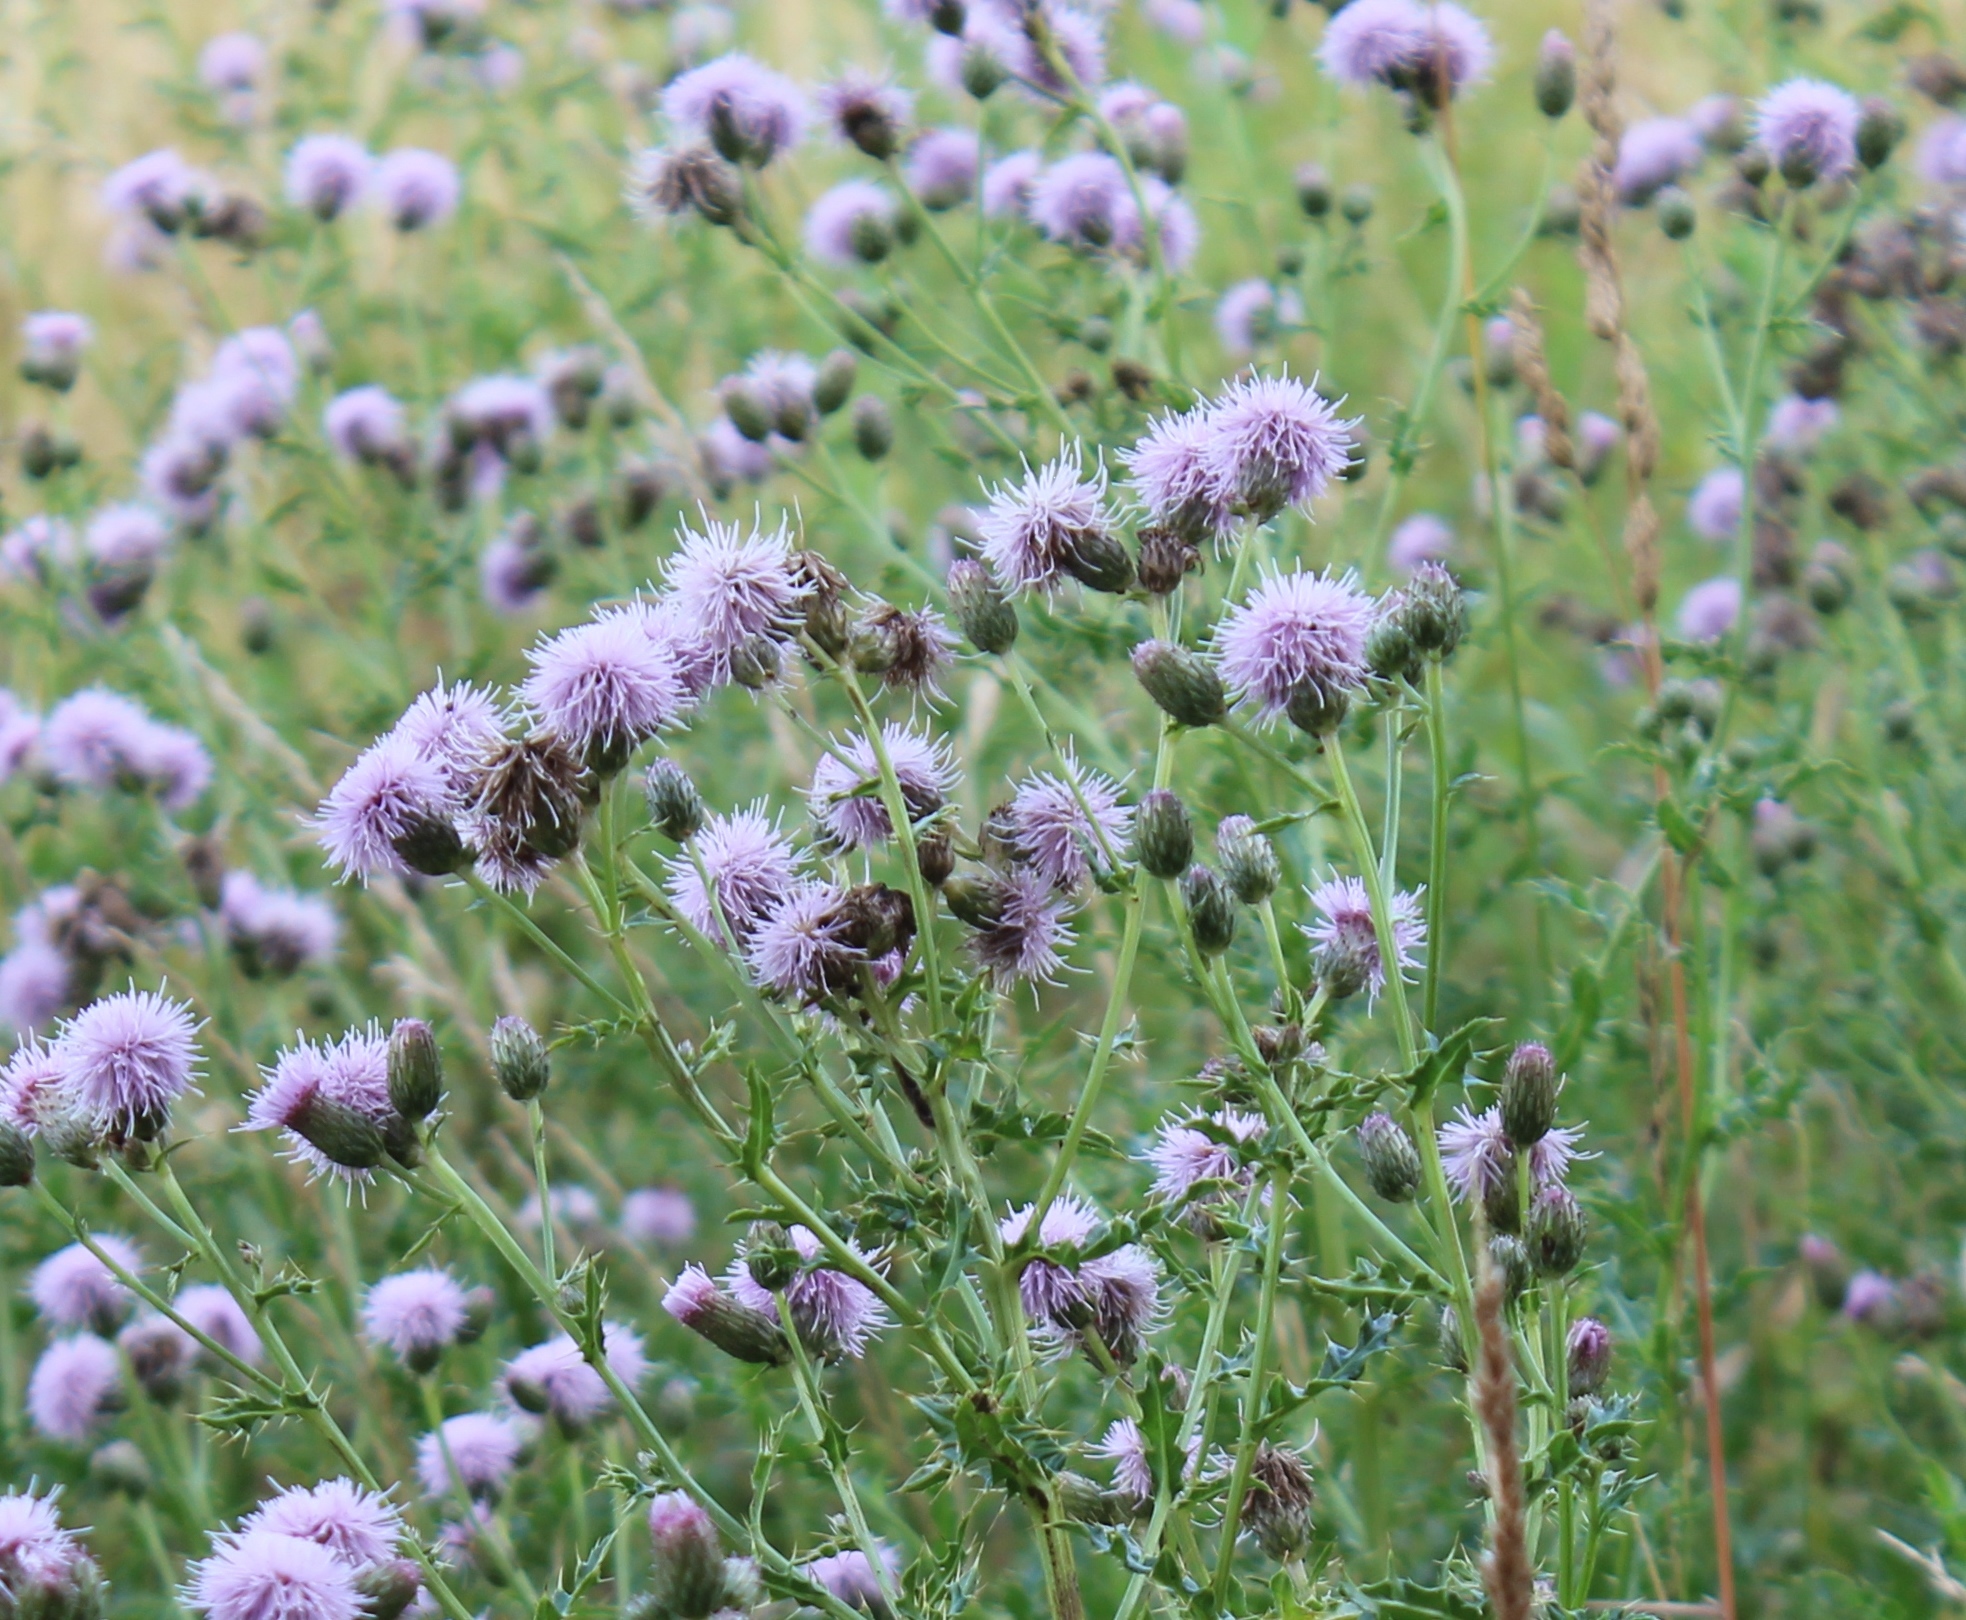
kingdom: Plantae
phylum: Tracheophyta
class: Magnoliopsida
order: Asterales
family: Asteraceae
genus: Cirsium
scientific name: Cirsium arvense
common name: Creeping thistle
